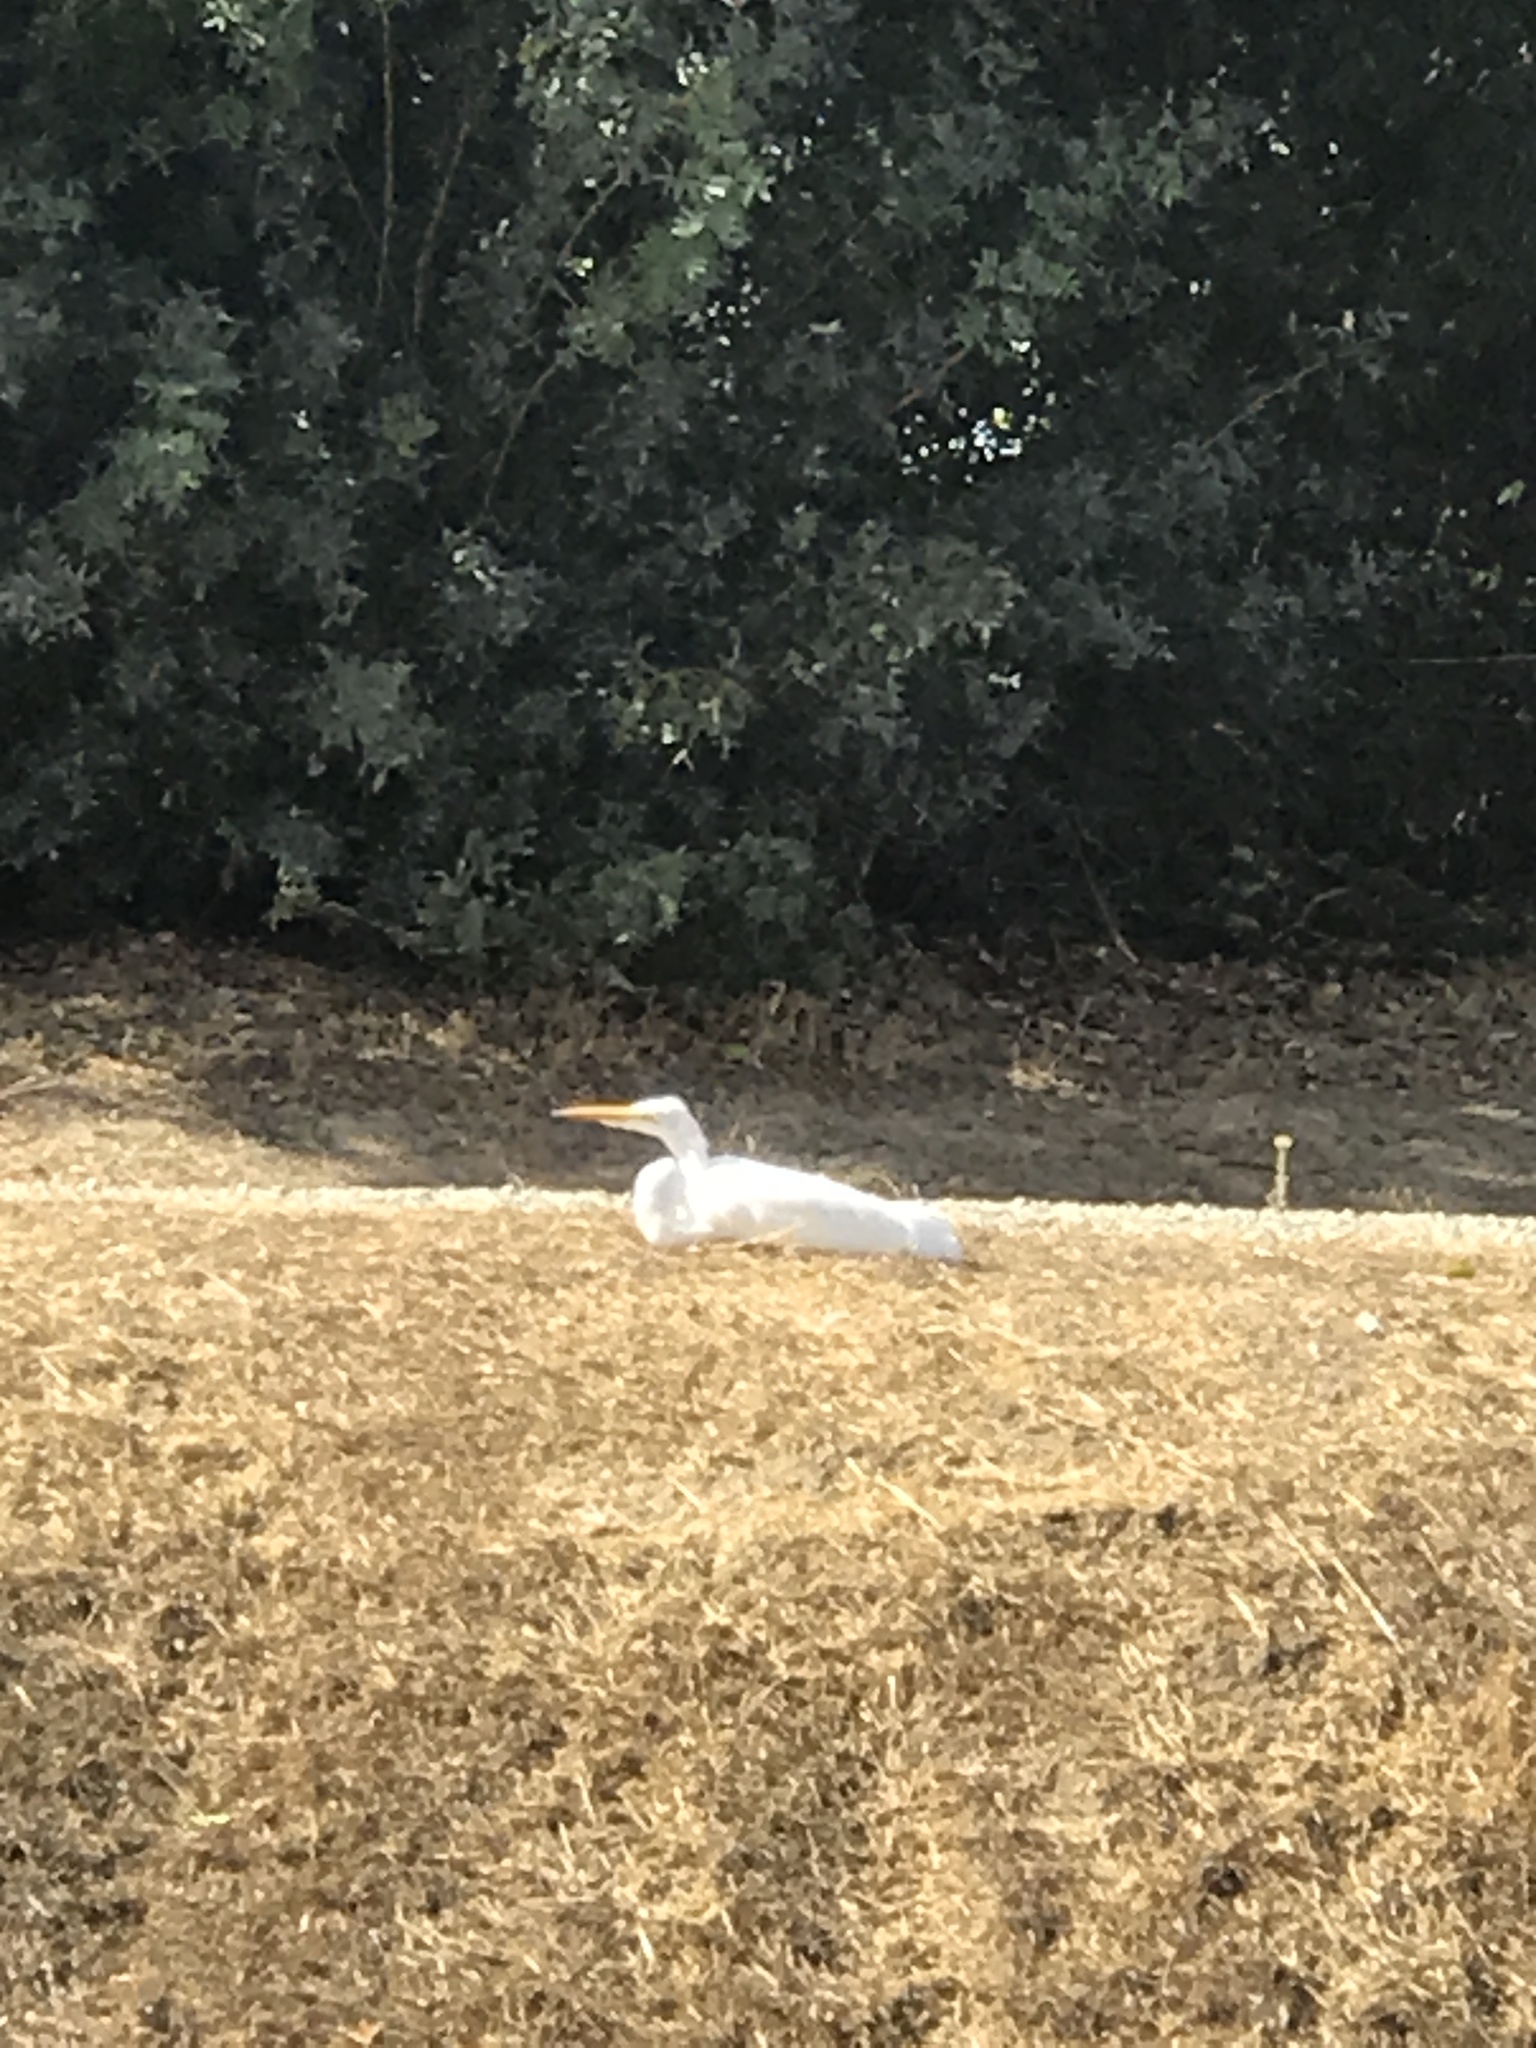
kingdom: Animalia
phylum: Chordata
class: Aves
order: Pelecaniformes
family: Ardeidae
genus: Ardea
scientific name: Ardea alba
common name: Great egret
